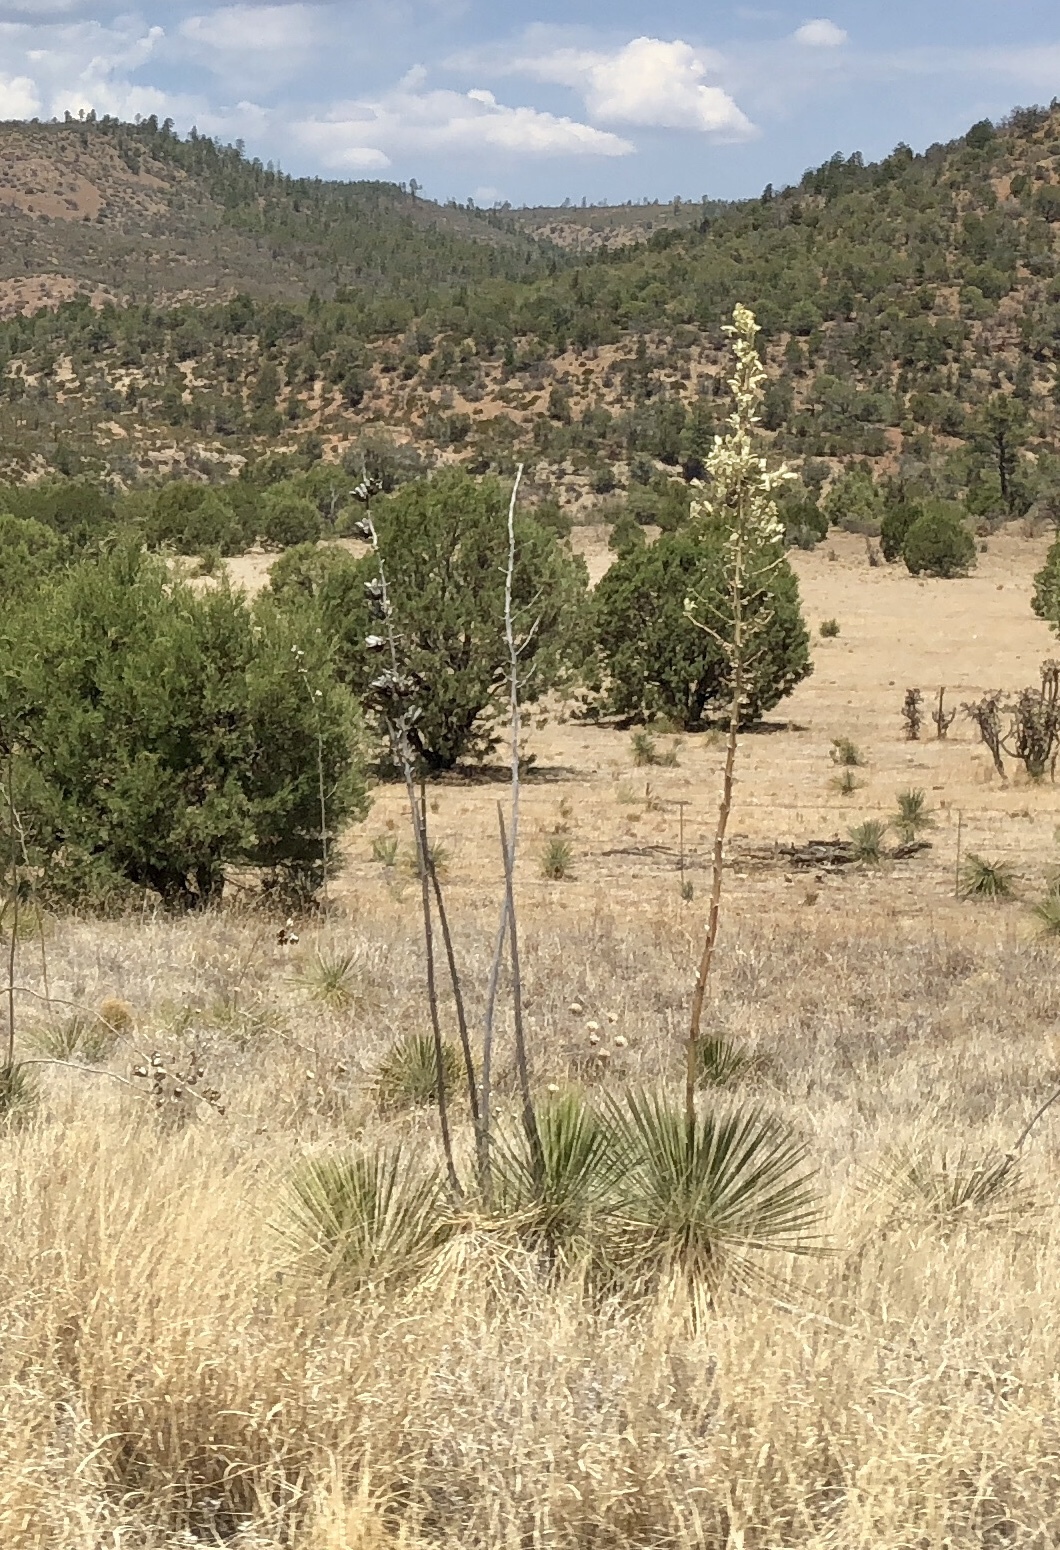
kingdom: Plantae
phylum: Tracheophyta
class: Liliopsida
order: Asparagales
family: Asparagaceae
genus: Yucca
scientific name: Yucca elata
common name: Palmella
